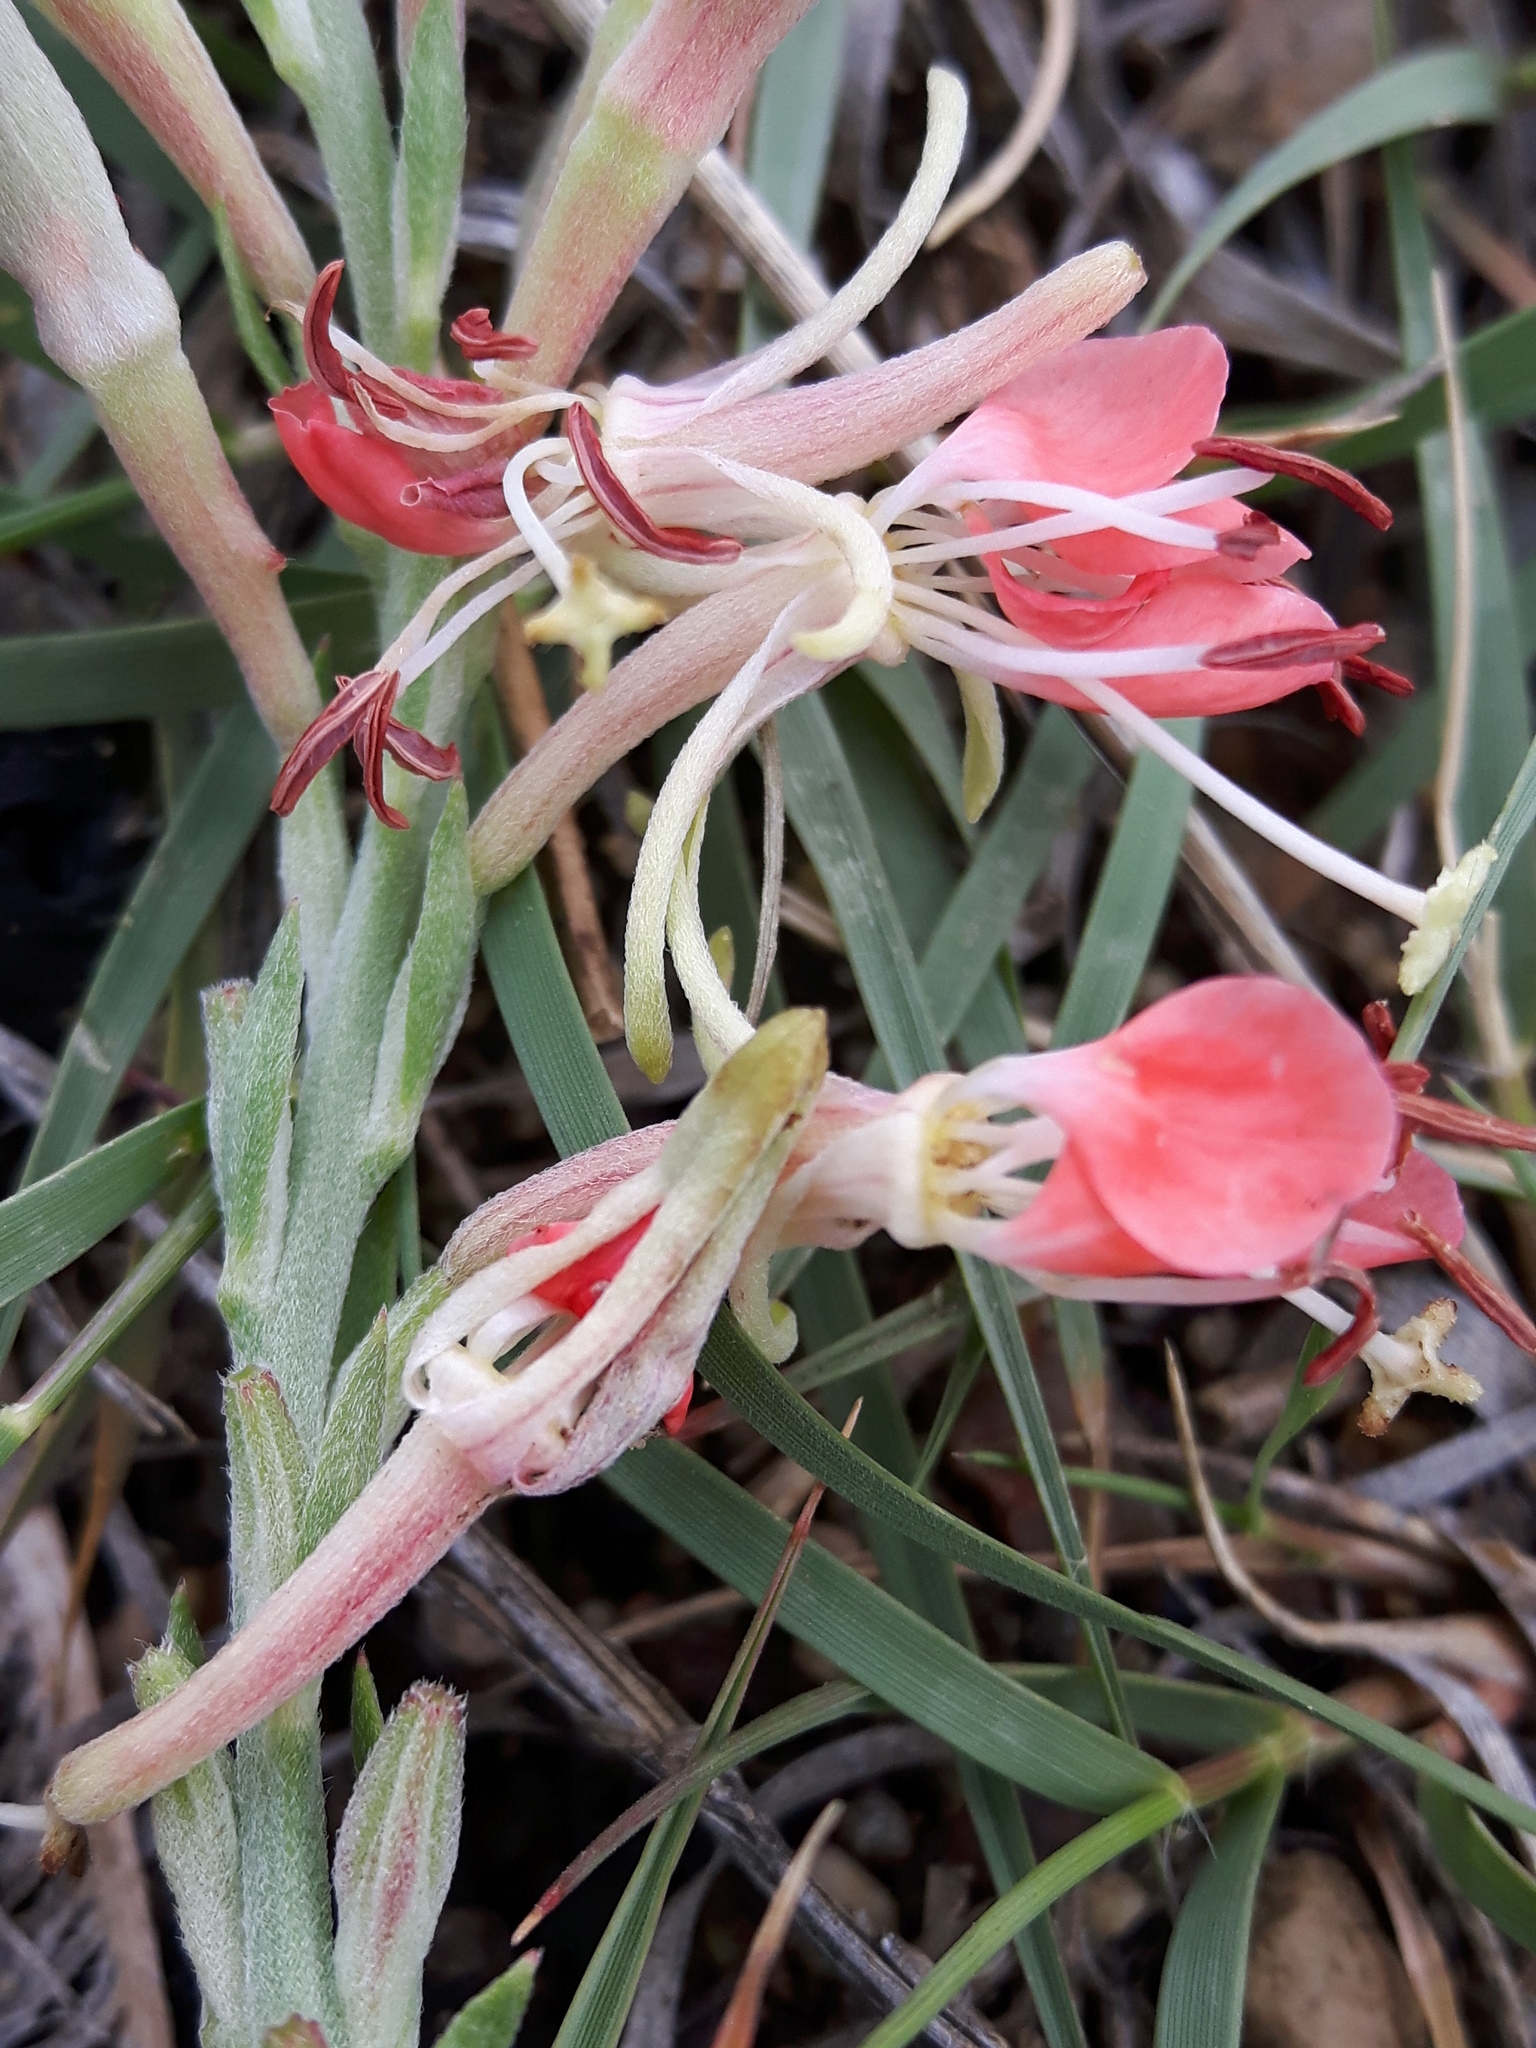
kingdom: Plantae
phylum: Tracheophyta
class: Magnoliopsida
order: Myrtales
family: Onagraceae
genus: Oenothera
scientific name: Oenothera suffrutescens
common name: Scarlet beeblossom
